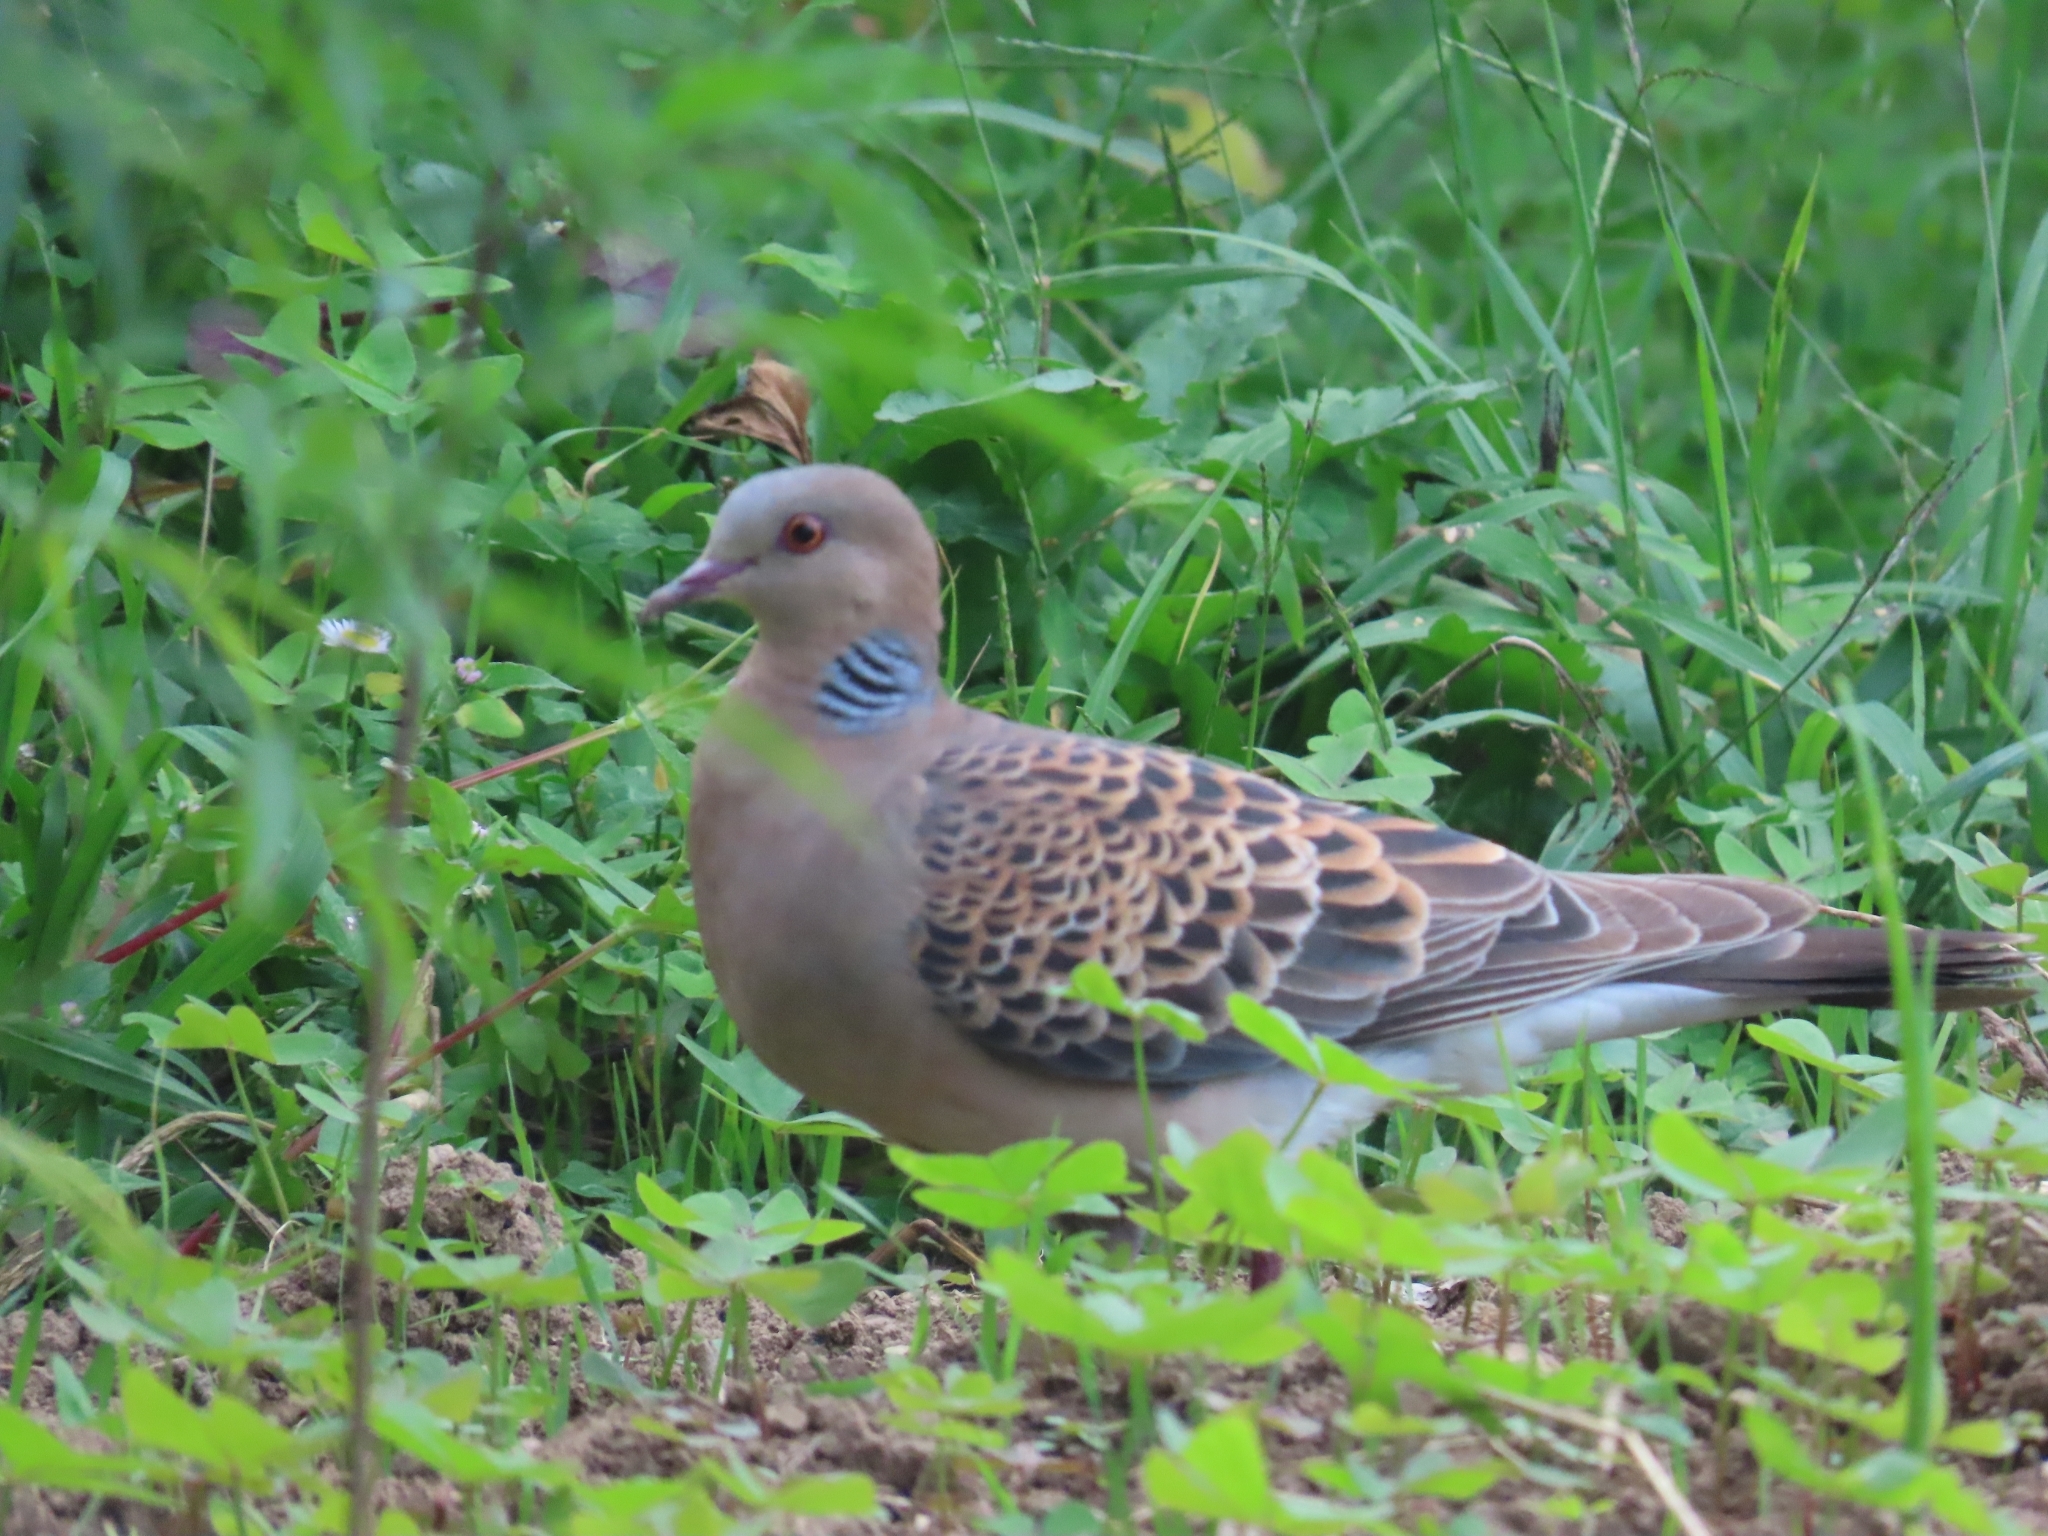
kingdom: Animalia
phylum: Chordata
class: Aves
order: Columbiformes
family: Columbidae
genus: Streptopelia
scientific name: Streptopelia orientalis
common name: Oriental turtle dove
